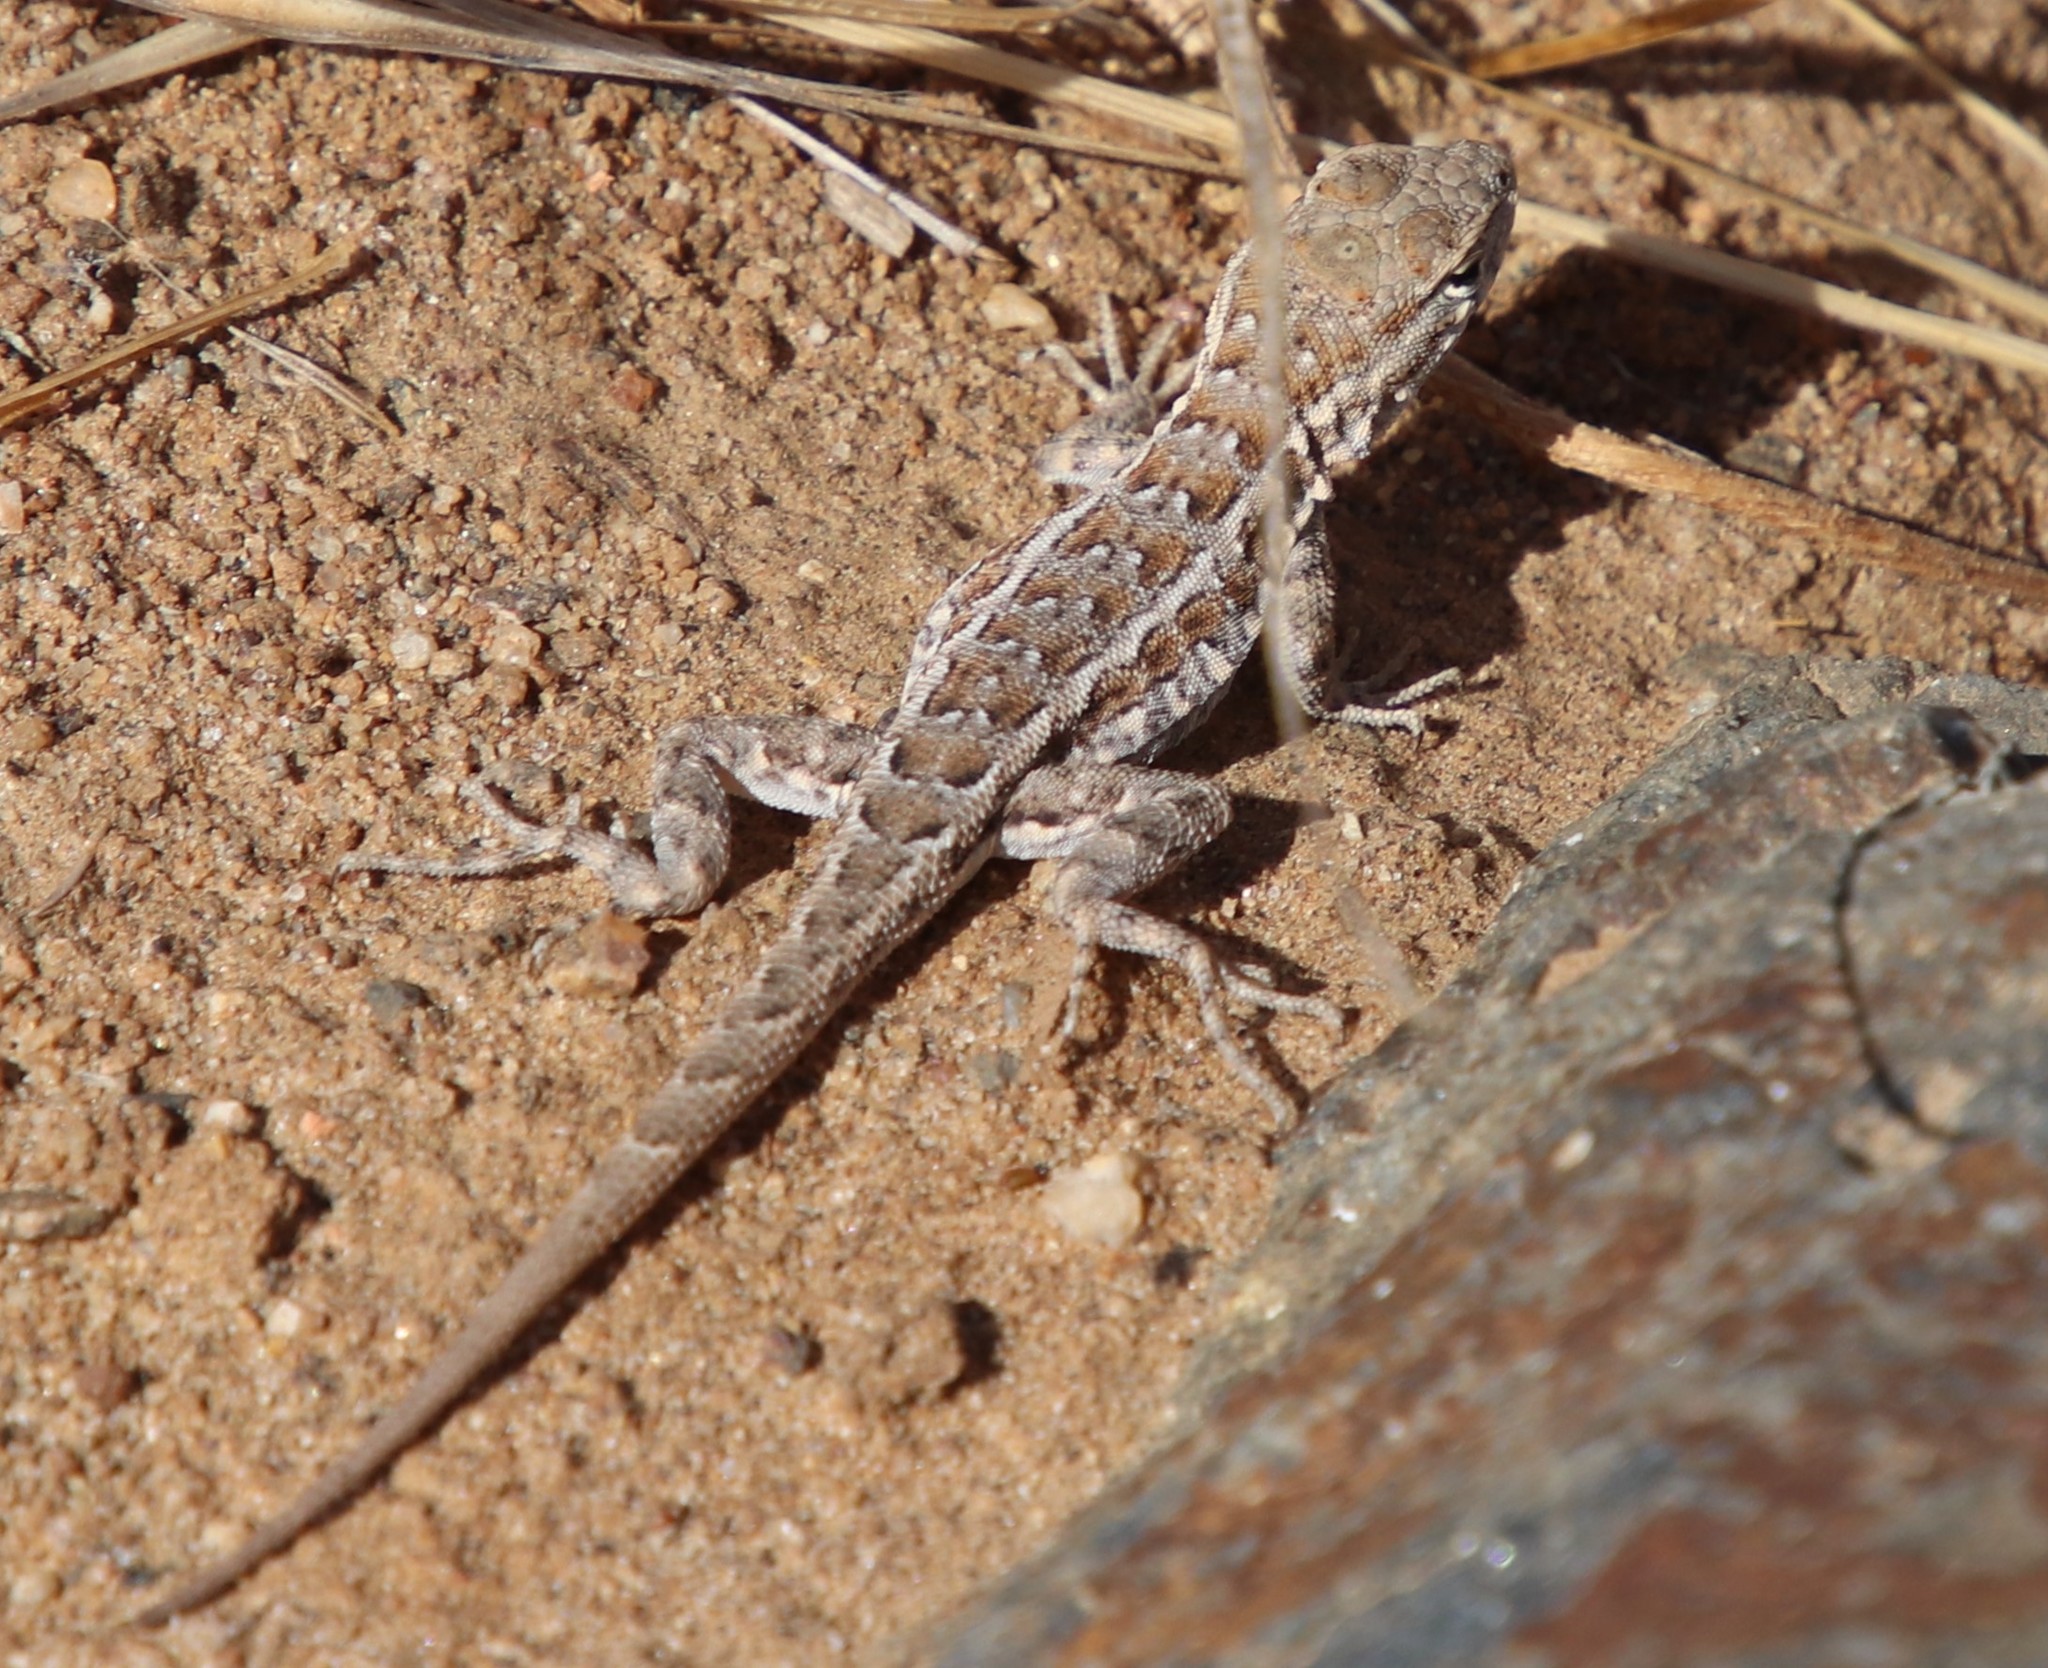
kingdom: Animalia
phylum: Chordata
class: Squamata
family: Phrynosomatidae
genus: Uta
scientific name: Uta stansburiana
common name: Side-blotched lizard
